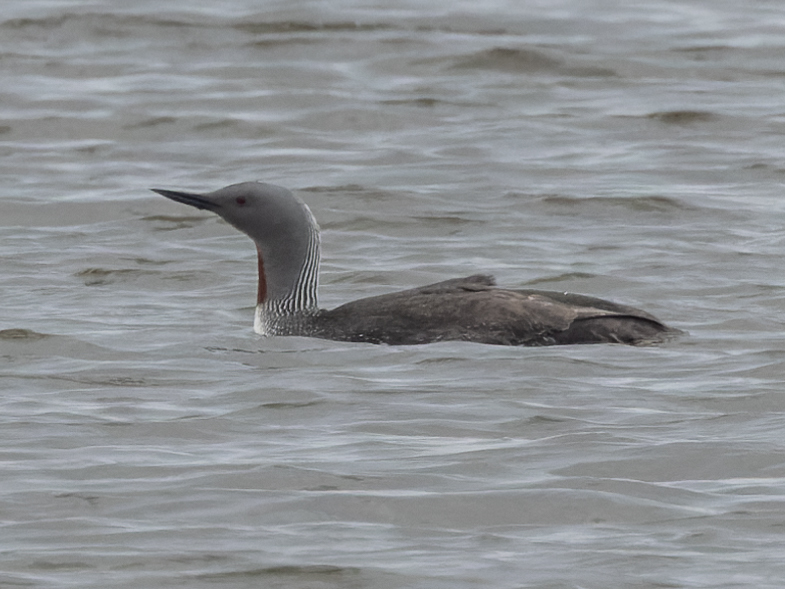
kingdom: Animalia
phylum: Chordata
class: Aves
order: Gaviiformes
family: Gaviidae
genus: Gavia
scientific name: Gavia stellata
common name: Red-throated loon
